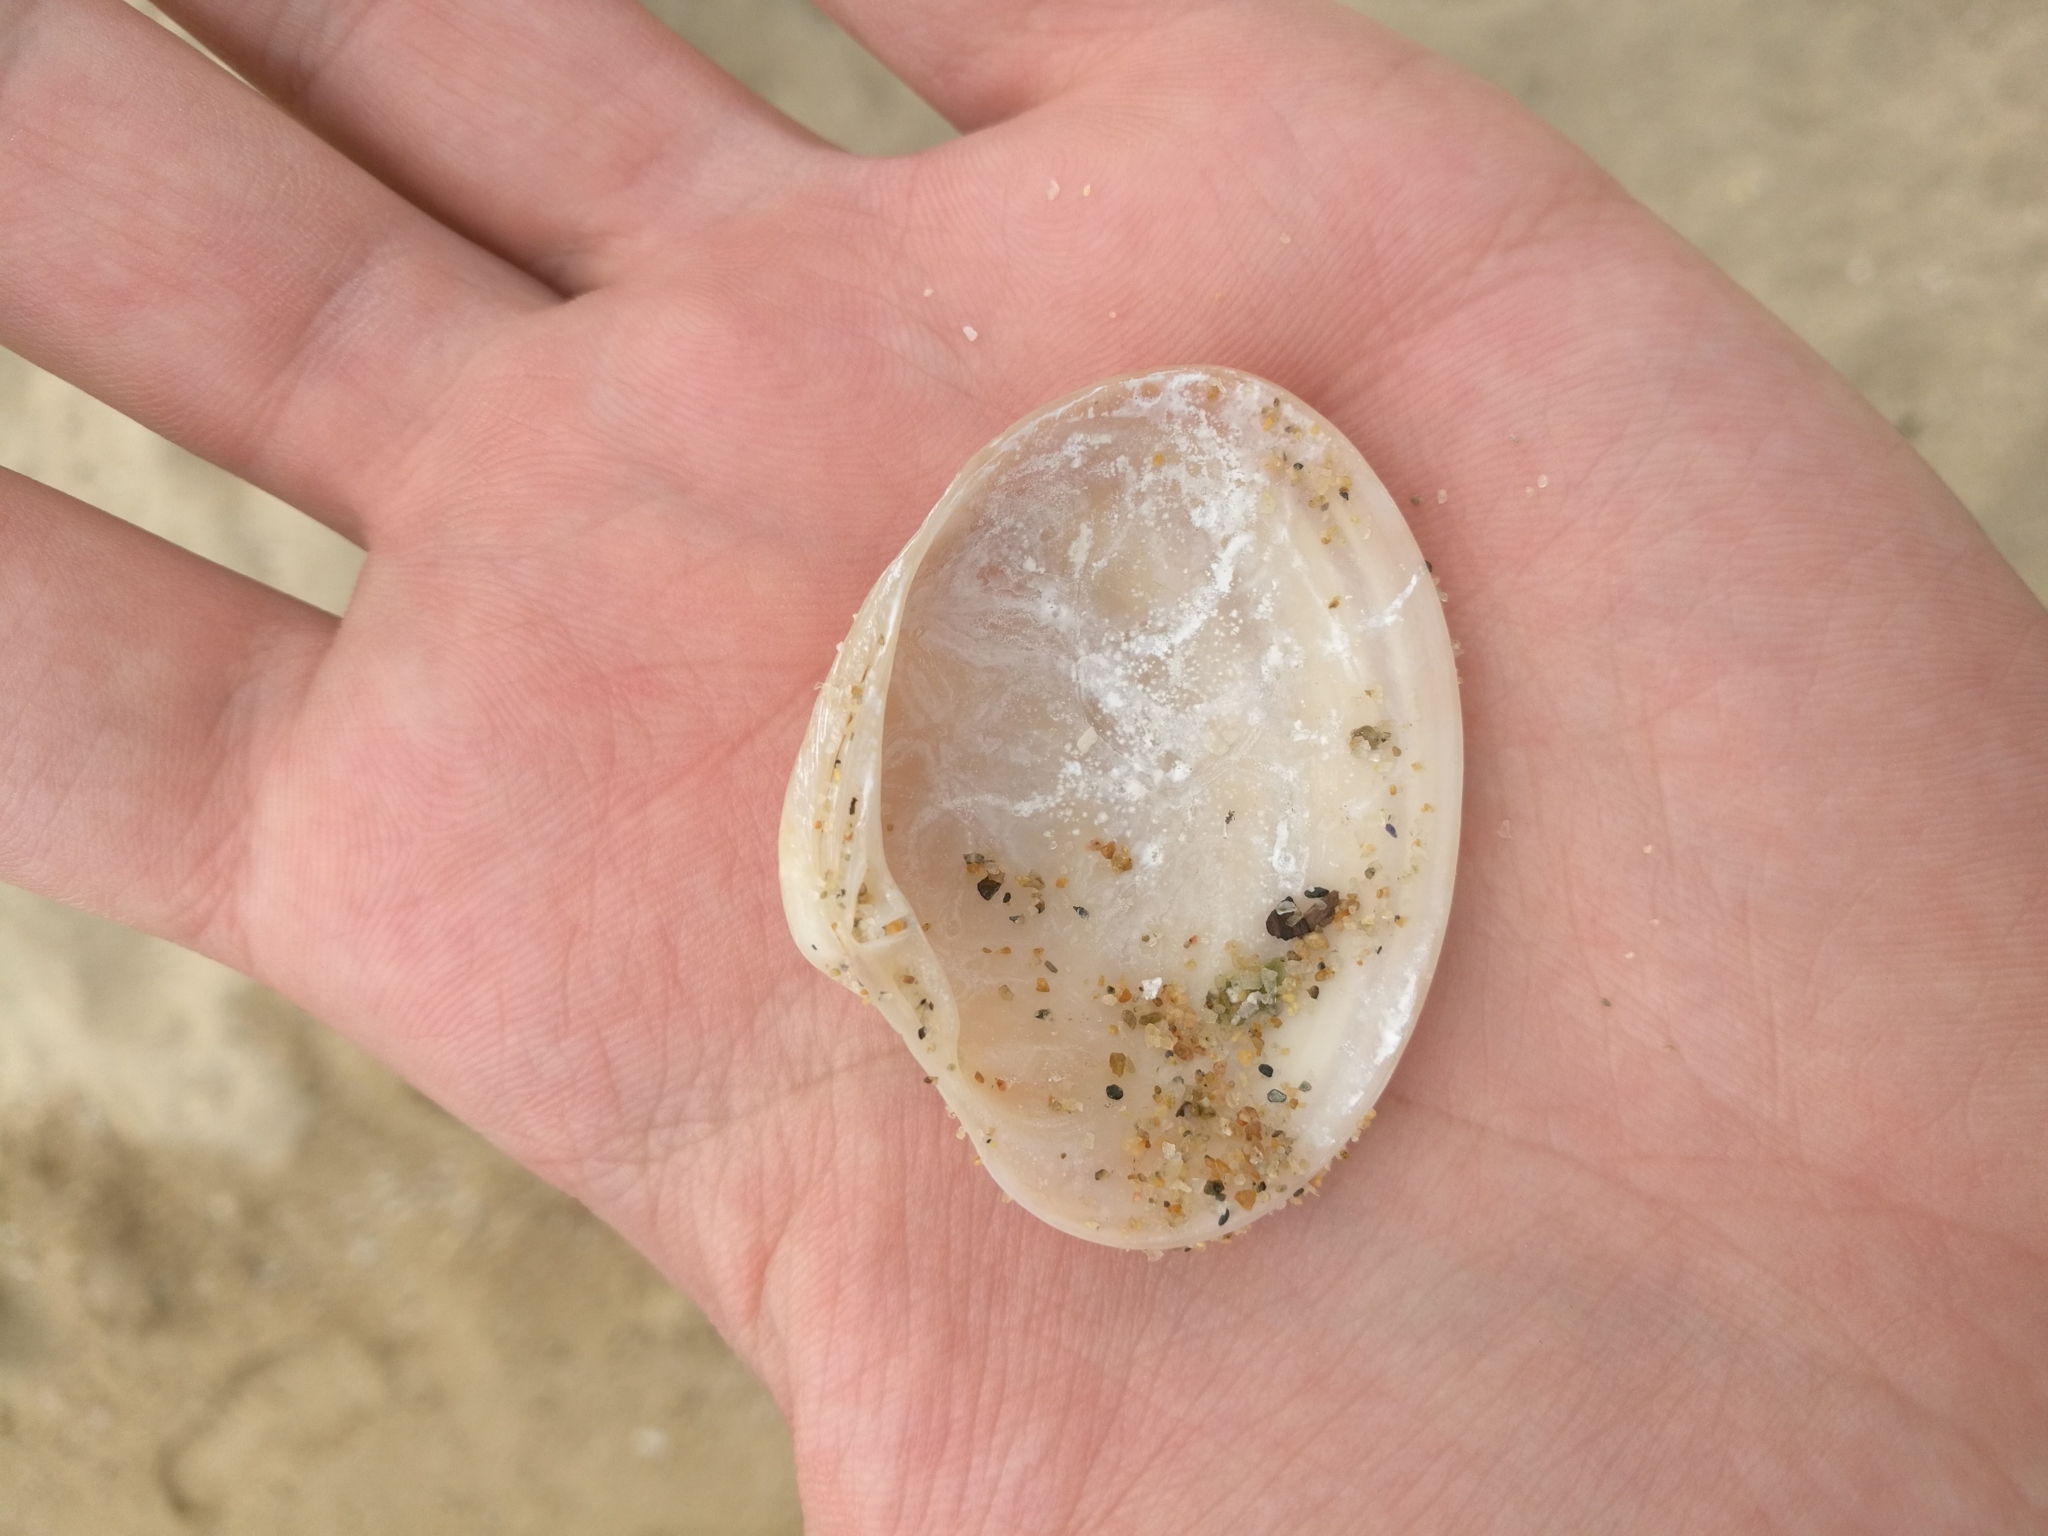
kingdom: Animalia
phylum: Mollusca
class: Bivalvia
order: Venerida
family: Veneridae
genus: Callista
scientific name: Callista chione
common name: Brown venus
